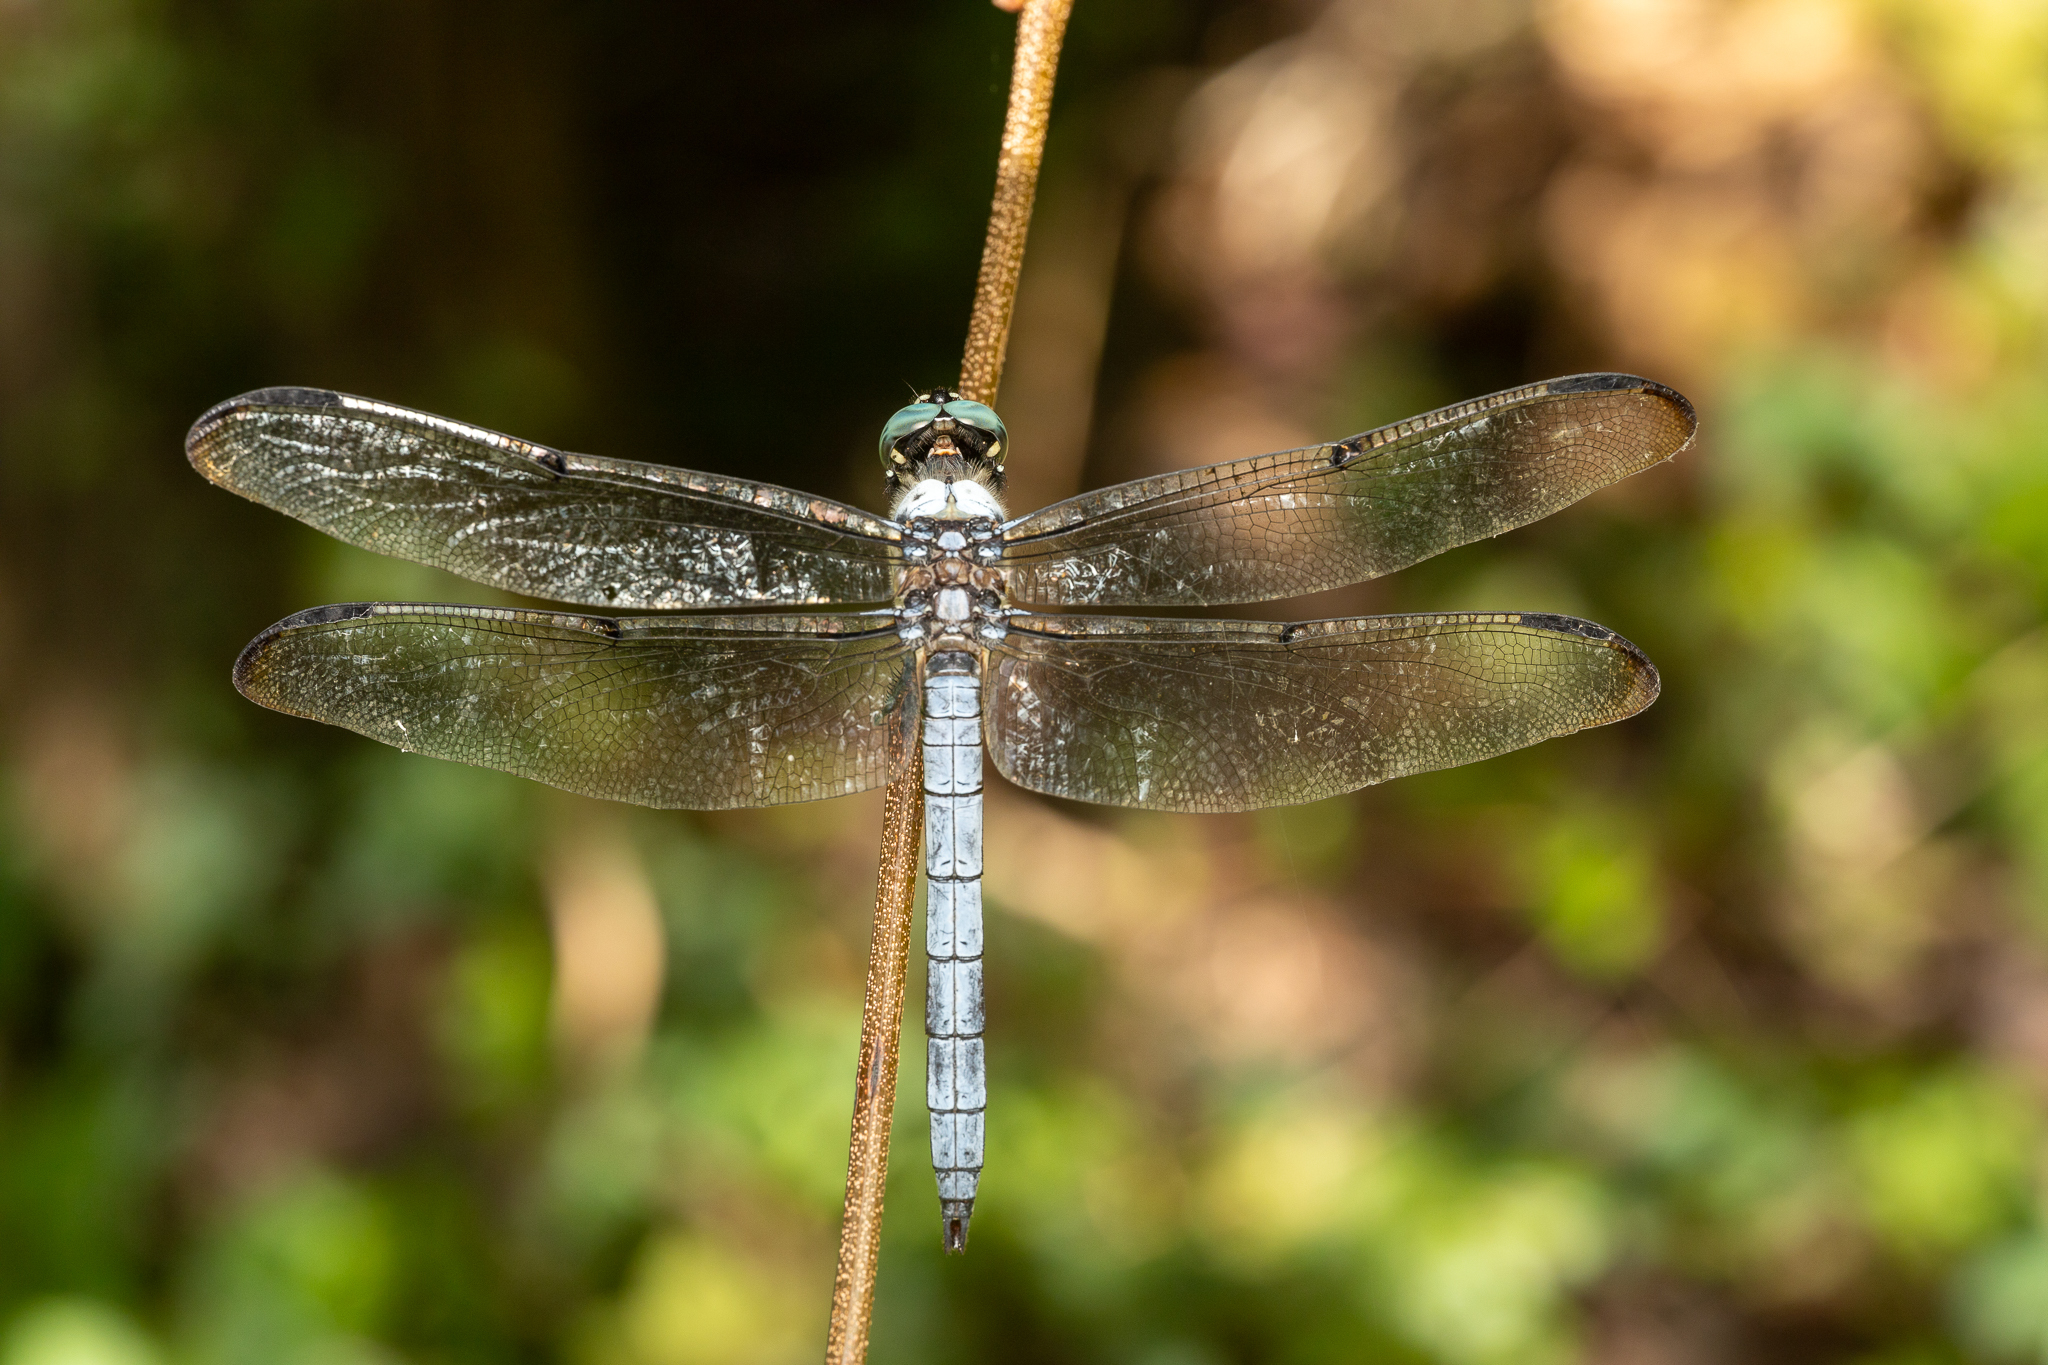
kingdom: Animalia
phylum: Arthropoda
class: Insecta
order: Odonata
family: Libellulidae
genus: Libellula
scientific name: Libellula vibrans
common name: Great blue skimmer
